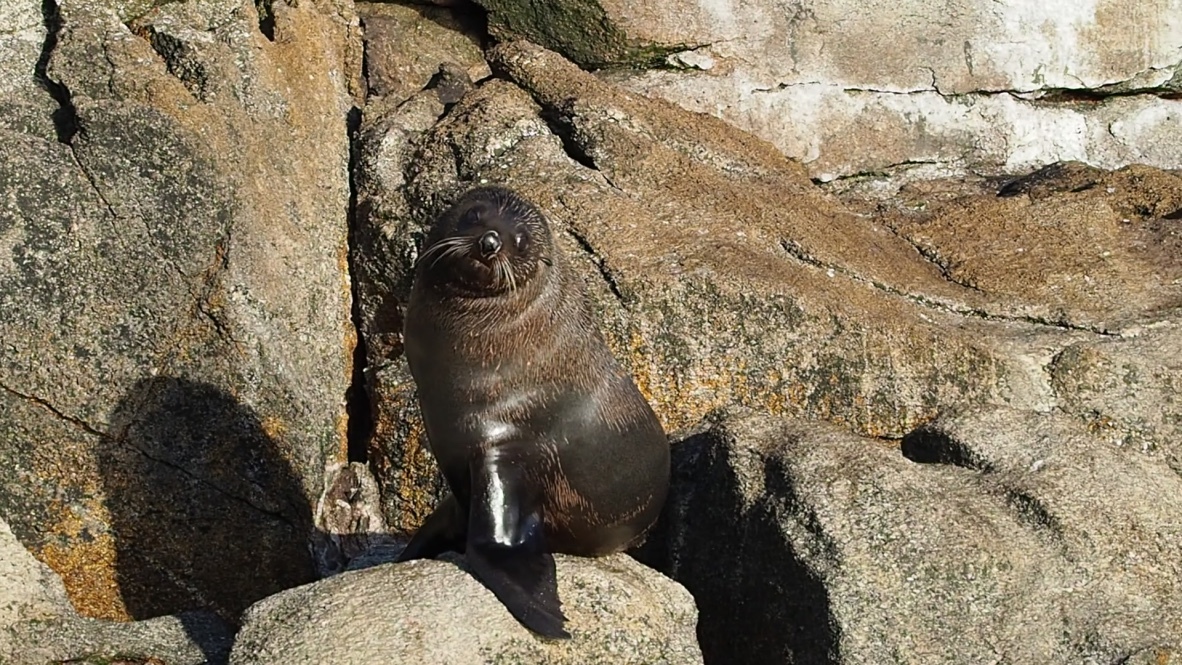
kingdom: Animalia
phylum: Chordata
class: Mammalia
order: Carnivora
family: Otariidae
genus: Arctocephalus
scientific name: Arctocephalus forsteri
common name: New zealand fur seal
